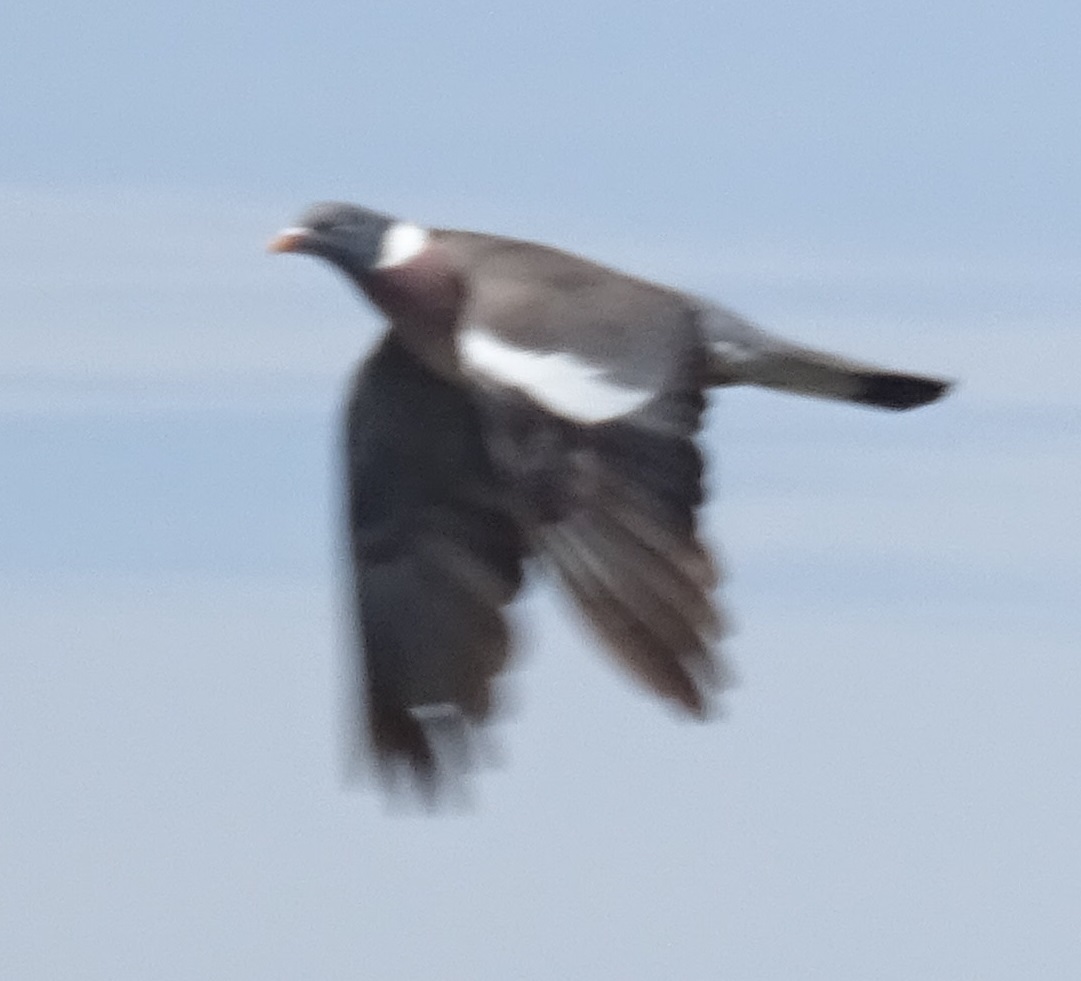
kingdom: Animalia
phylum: Chordata
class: Aves
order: Columbiformes
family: Columbidae
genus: Columba
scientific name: Columba palumbus
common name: Common wood pigeon
